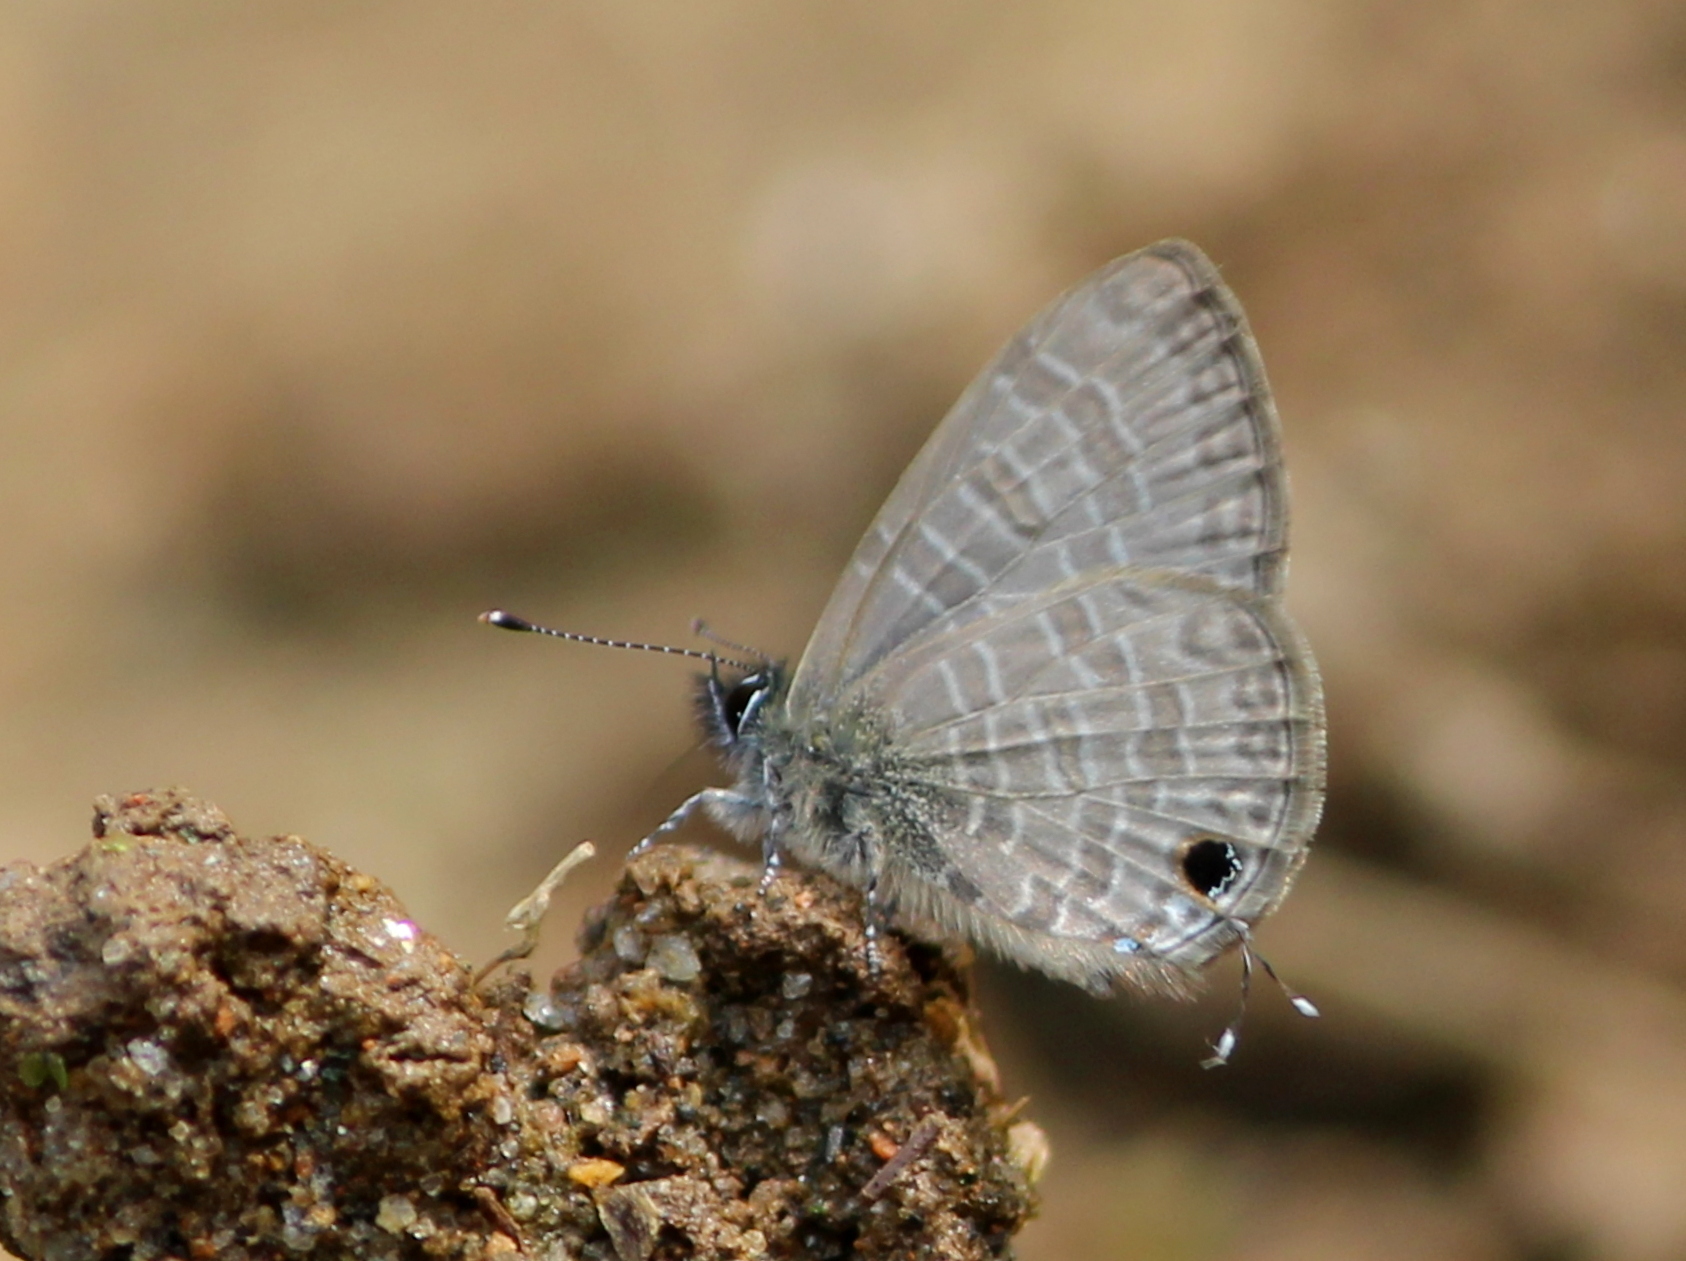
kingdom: Animalia
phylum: Arthropoda
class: Insecta
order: Lepidoptera
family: Lycaenidae
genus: Prosotas
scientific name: Prosotas nora
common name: Common line blue
